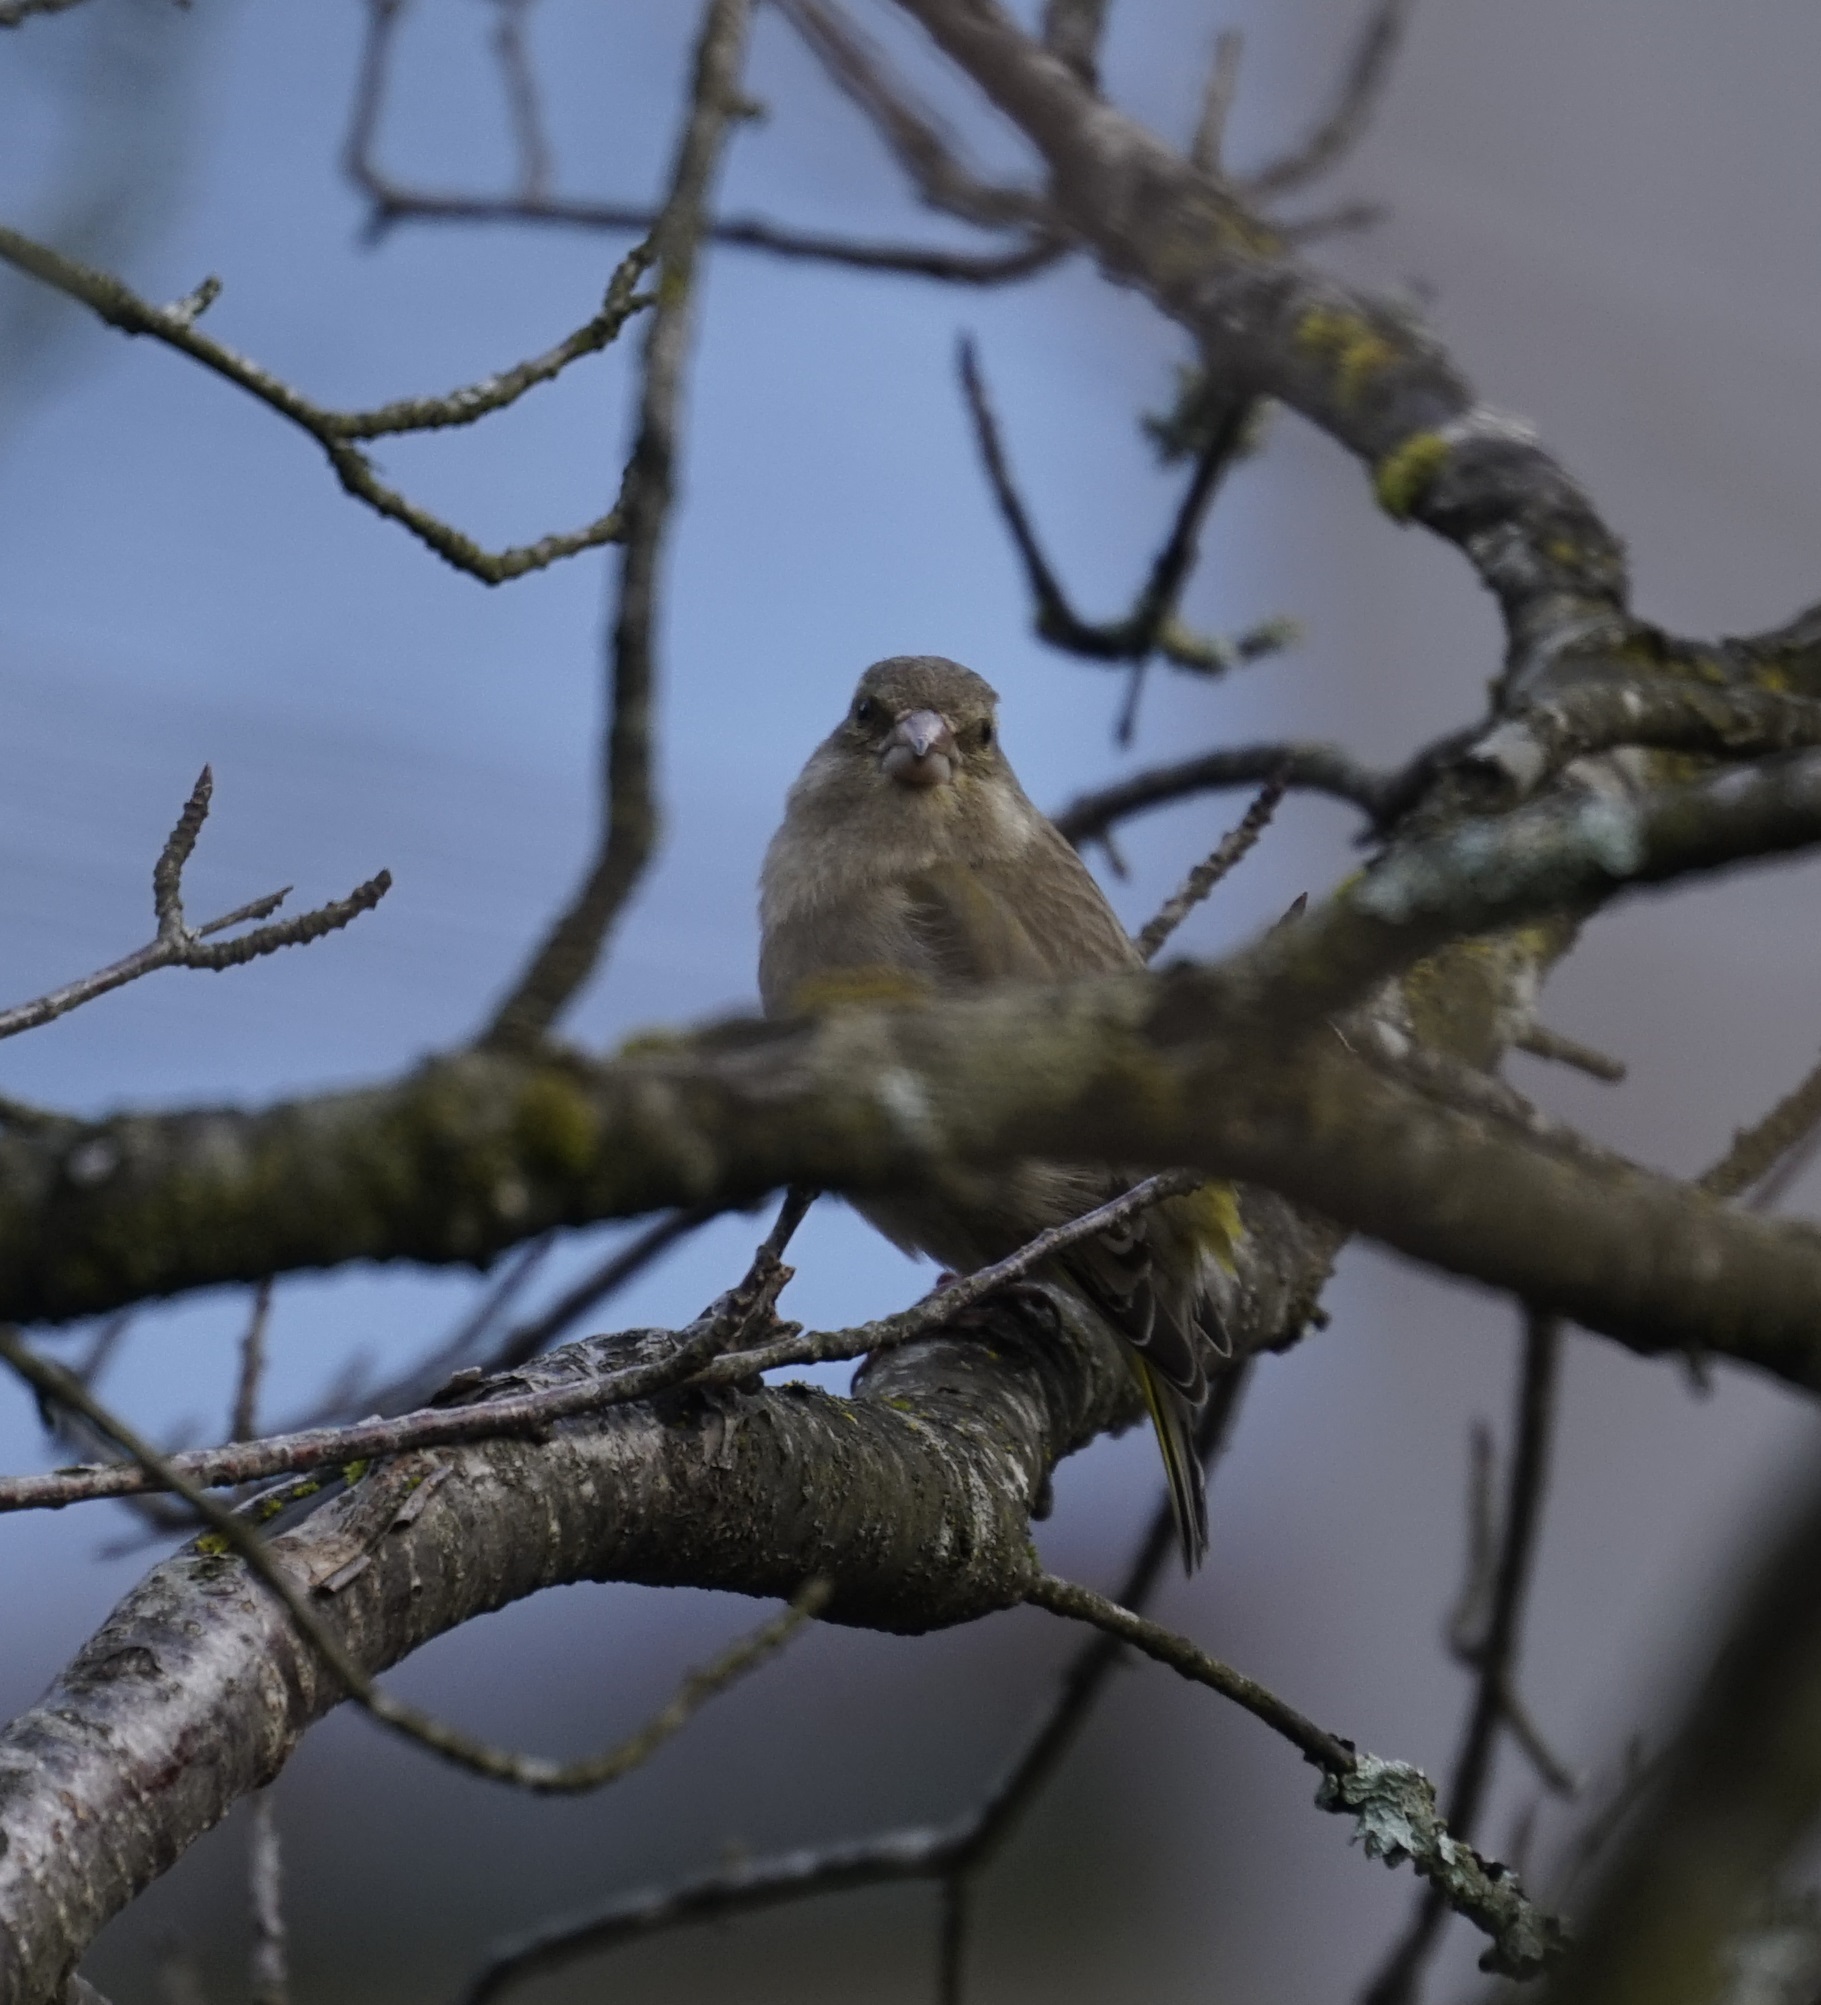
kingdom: Plantae
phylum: Tracheophyta
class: Liliopsida
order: Poales
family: Poaceae
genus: Chloris
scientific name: Chloris chloris
